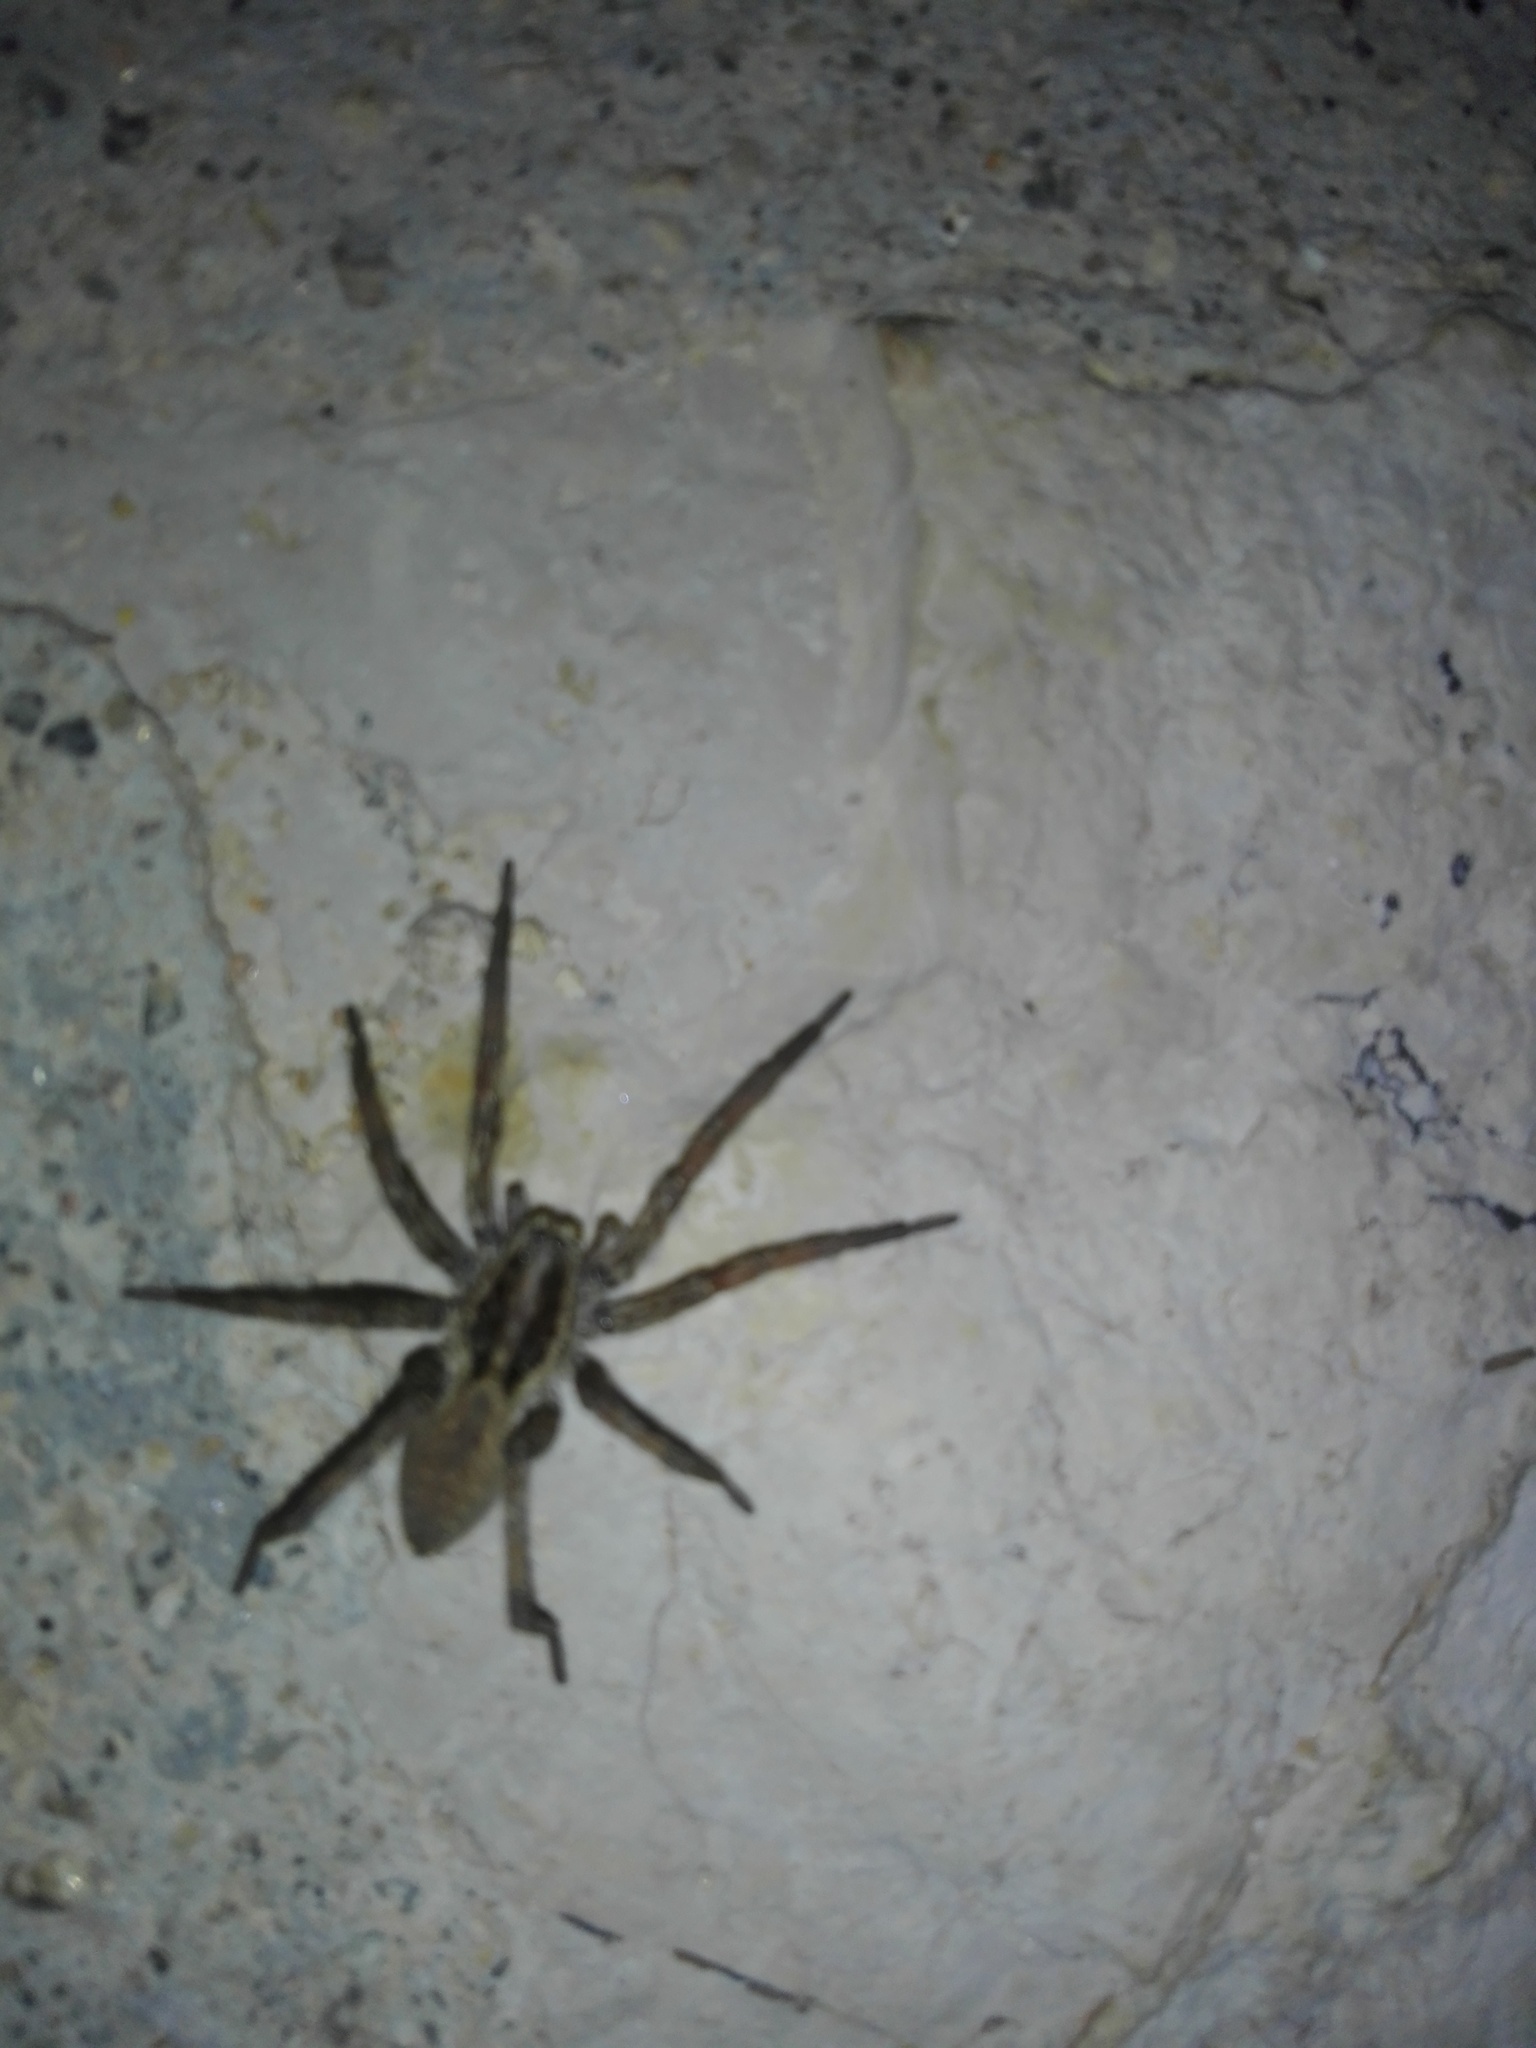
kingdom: Animalia
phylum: Arthropoda
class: Arachnida
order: Araneae
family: Lycosidae
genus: Hogna
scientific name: Hogna radiata
